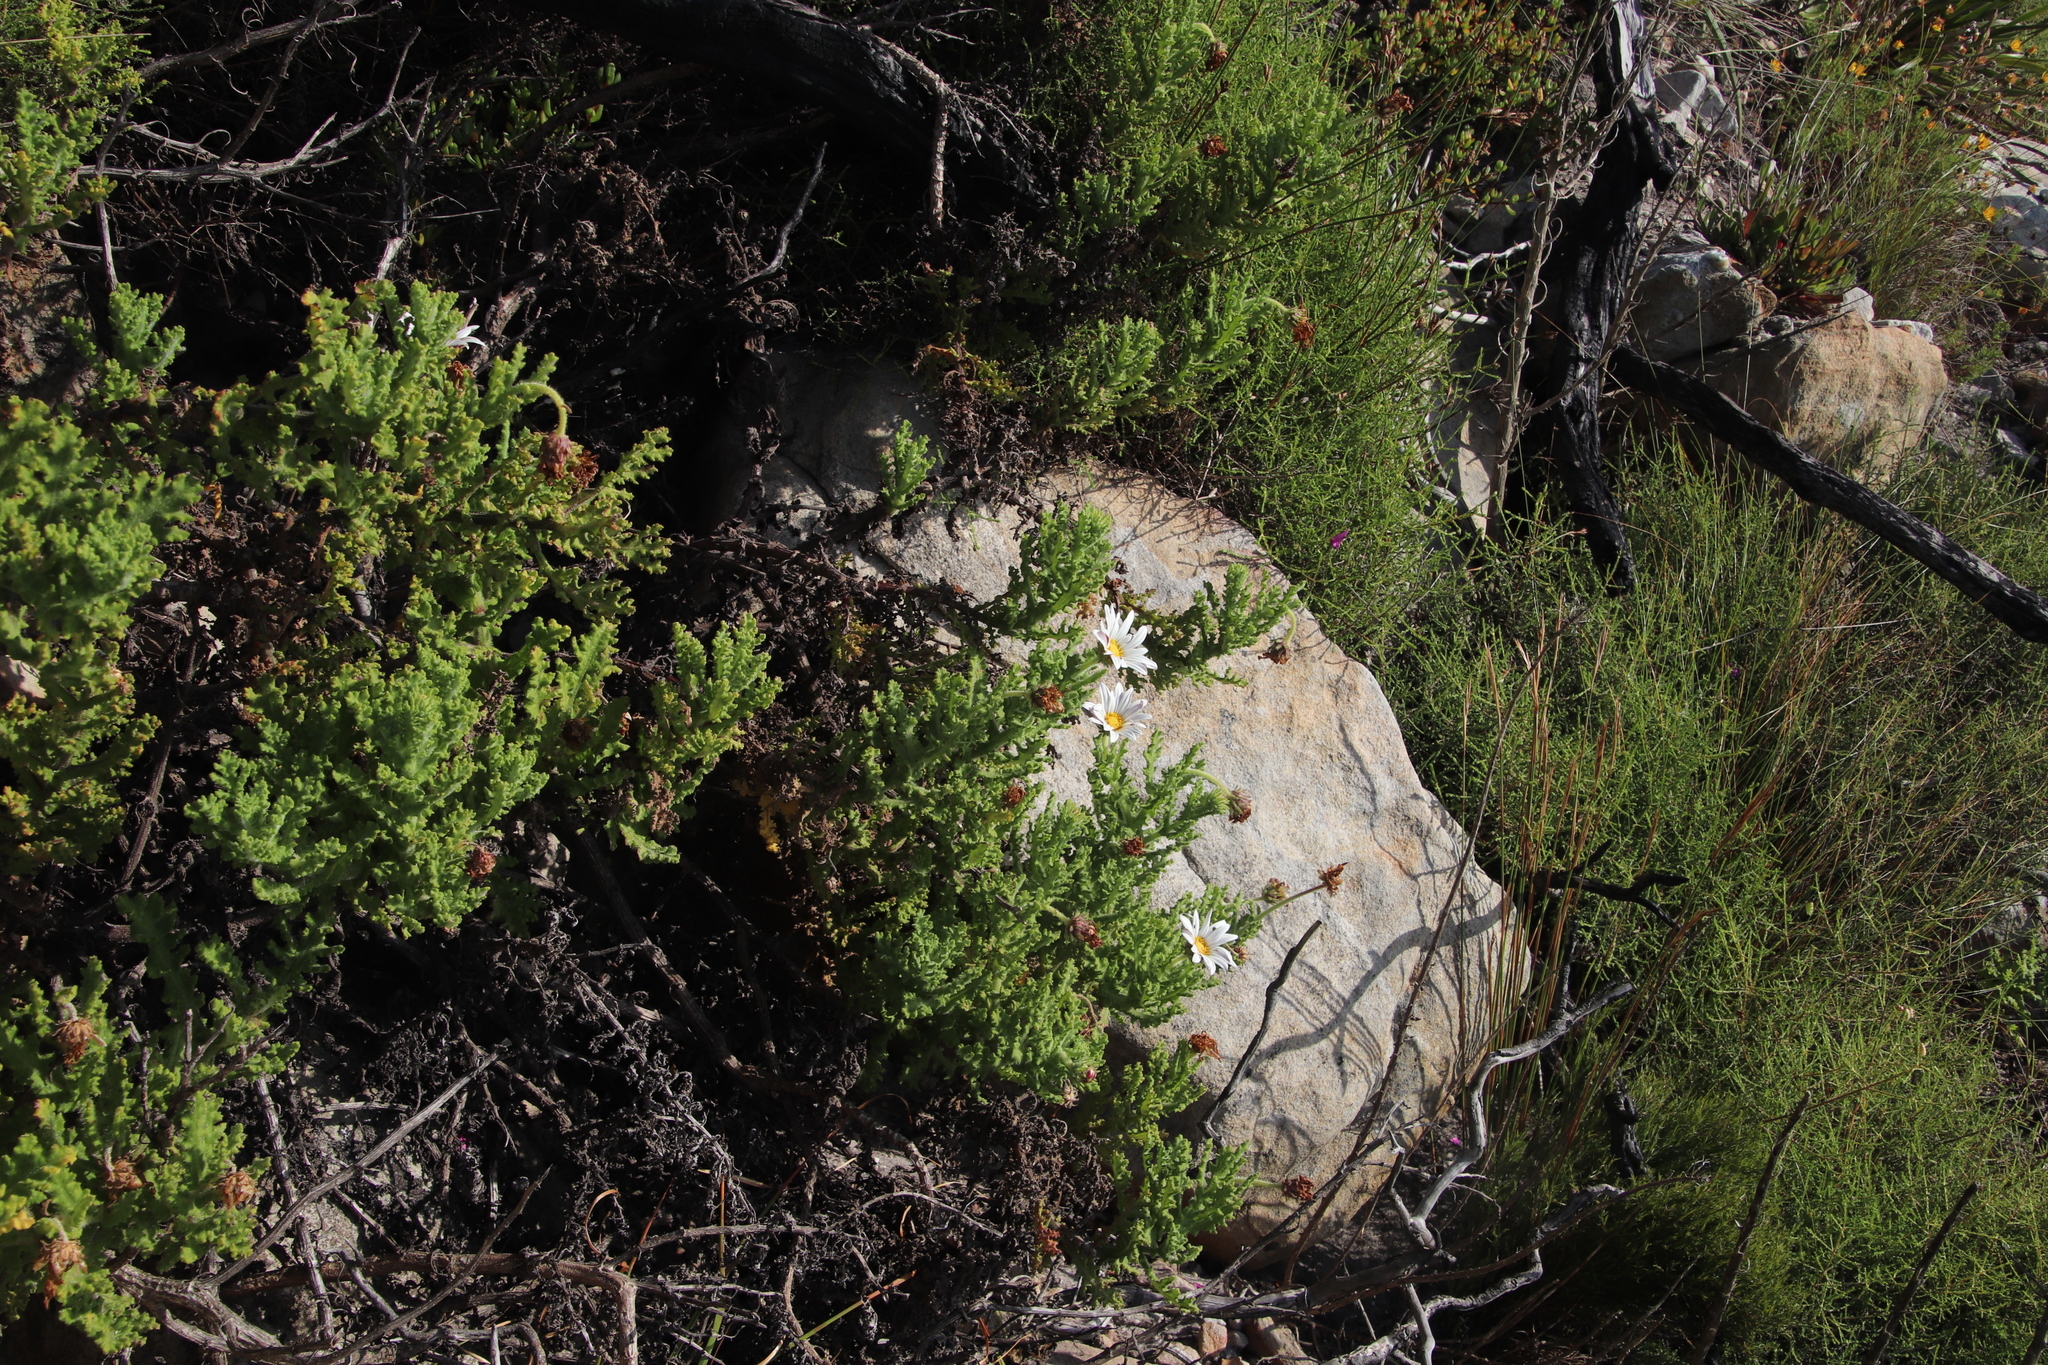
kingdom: Plantae
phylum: Tracheophyta
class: Magnoliopsida
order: Asterales
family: Asteraceae
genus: Arctotis
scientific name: Arctotis aspera
